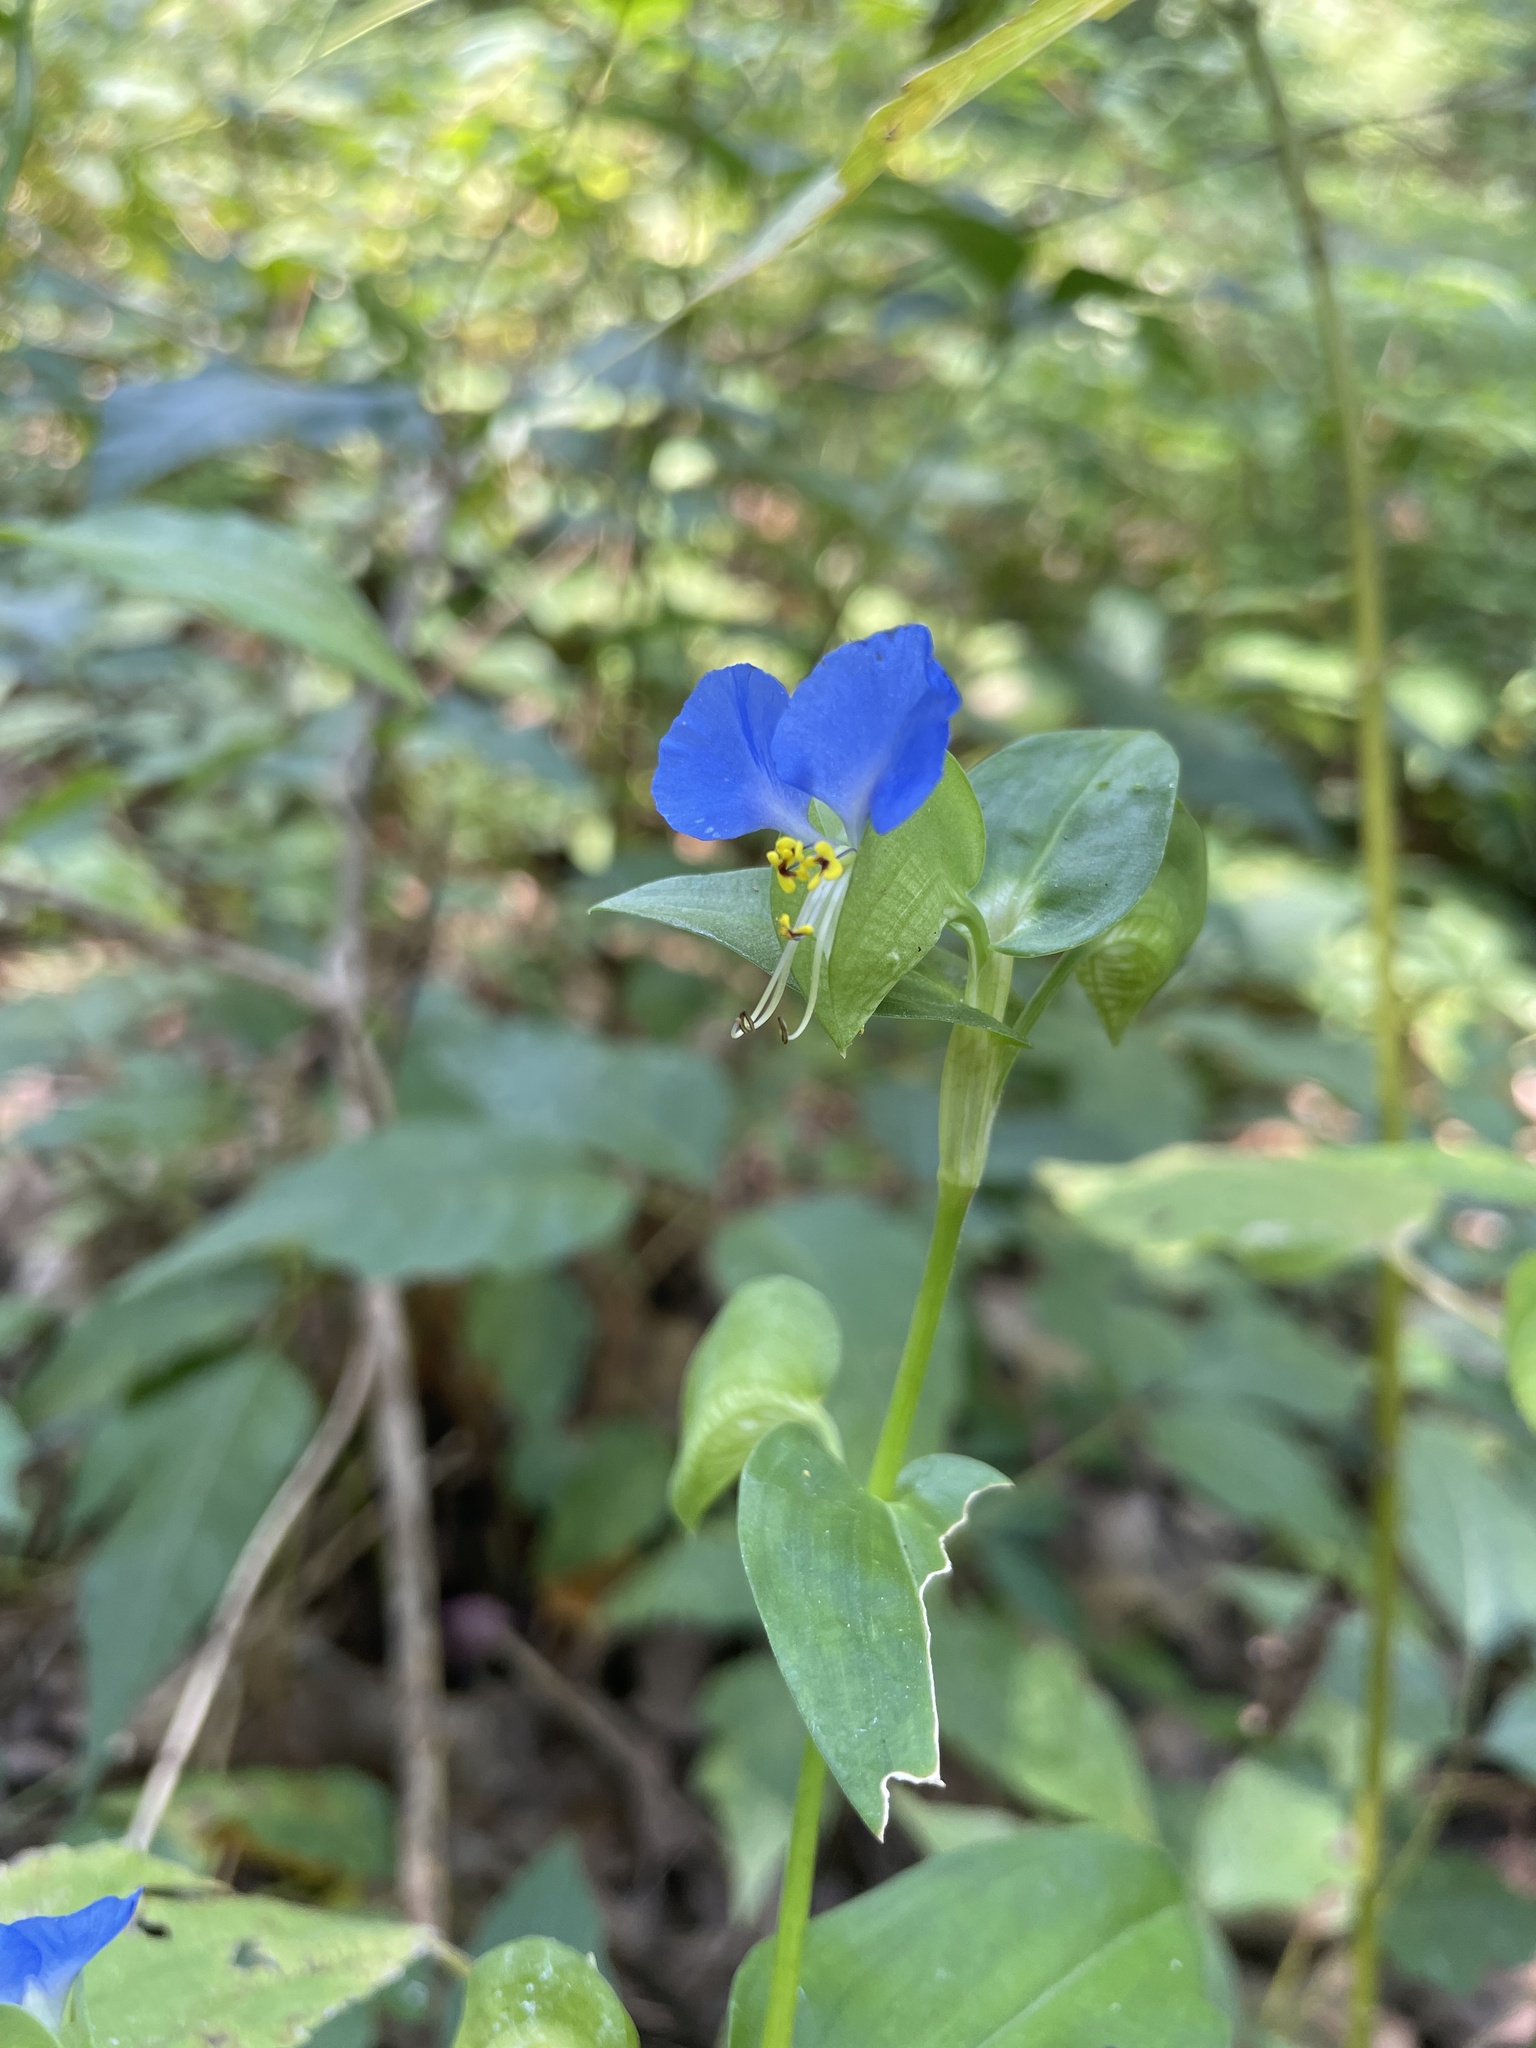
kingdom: Plantae
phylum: Tracheophyta
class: Liliopsida
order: Commelinales
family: Commelinaceae
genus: Commelina
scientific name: Commelina communis
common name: Asiatic dayflower
